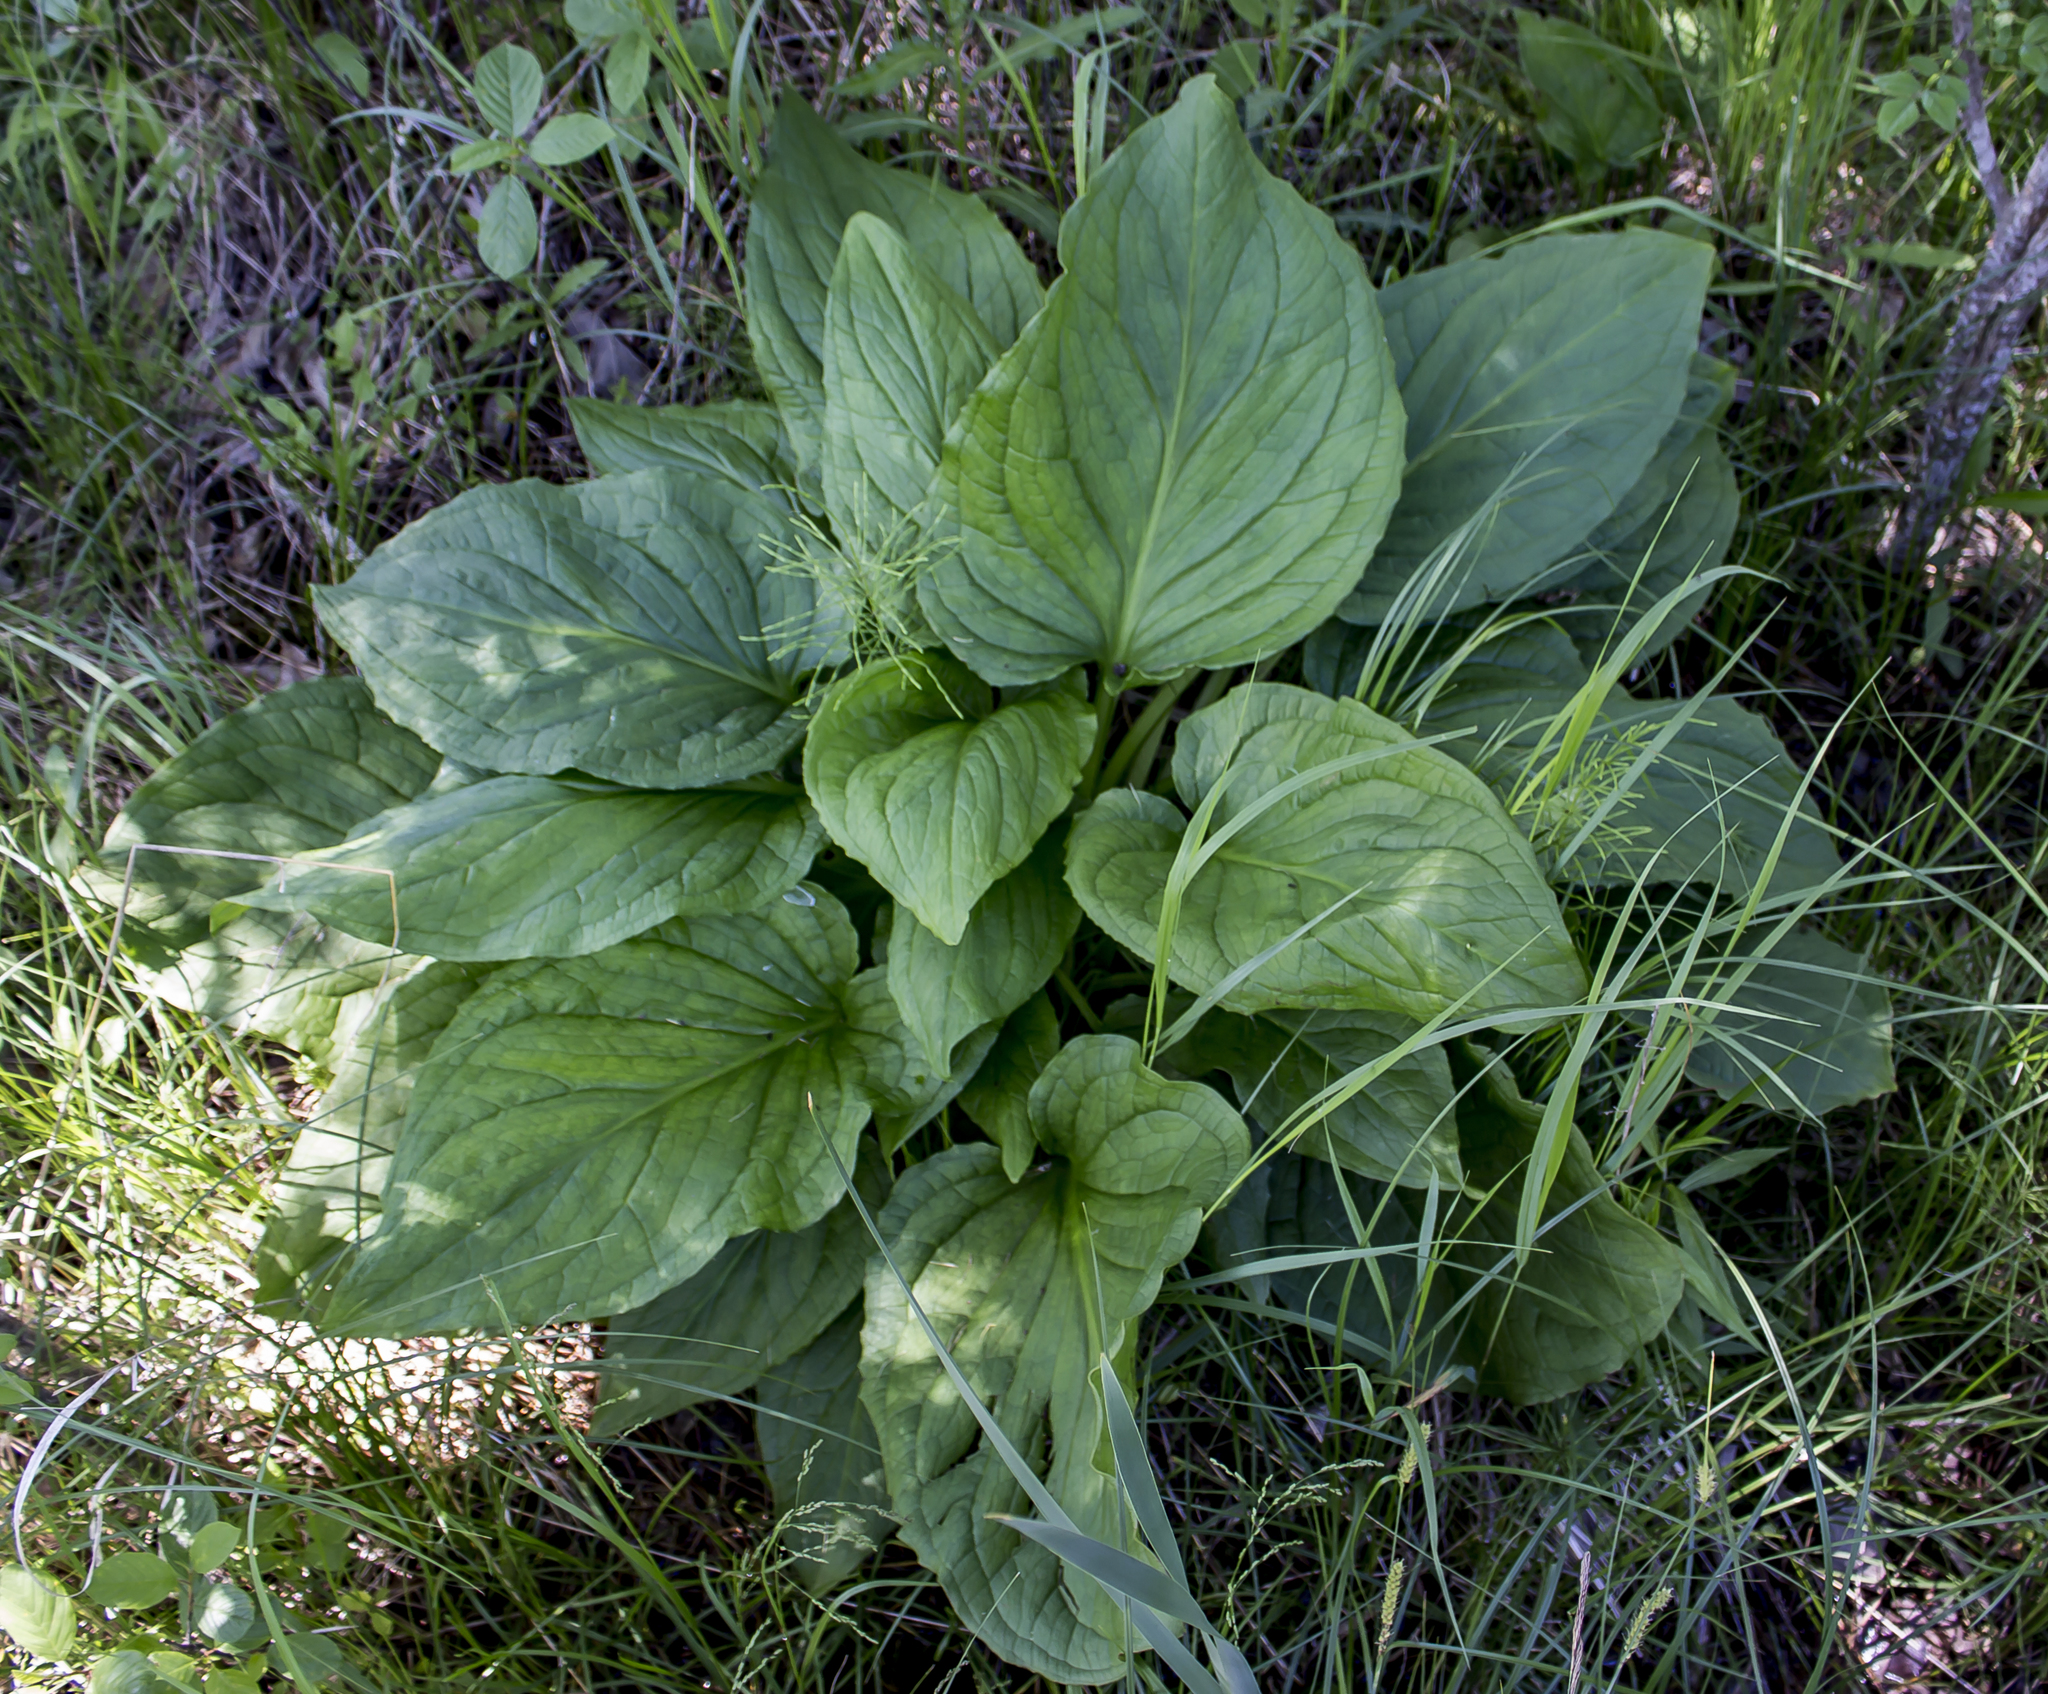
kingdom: Plantae
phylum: Tracheophyta
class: Liliopsida
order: Alismatales
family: Araceae
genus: Symplocarpus
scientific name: Symplocarpus foetidus
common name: Eastern skunk cabbage
